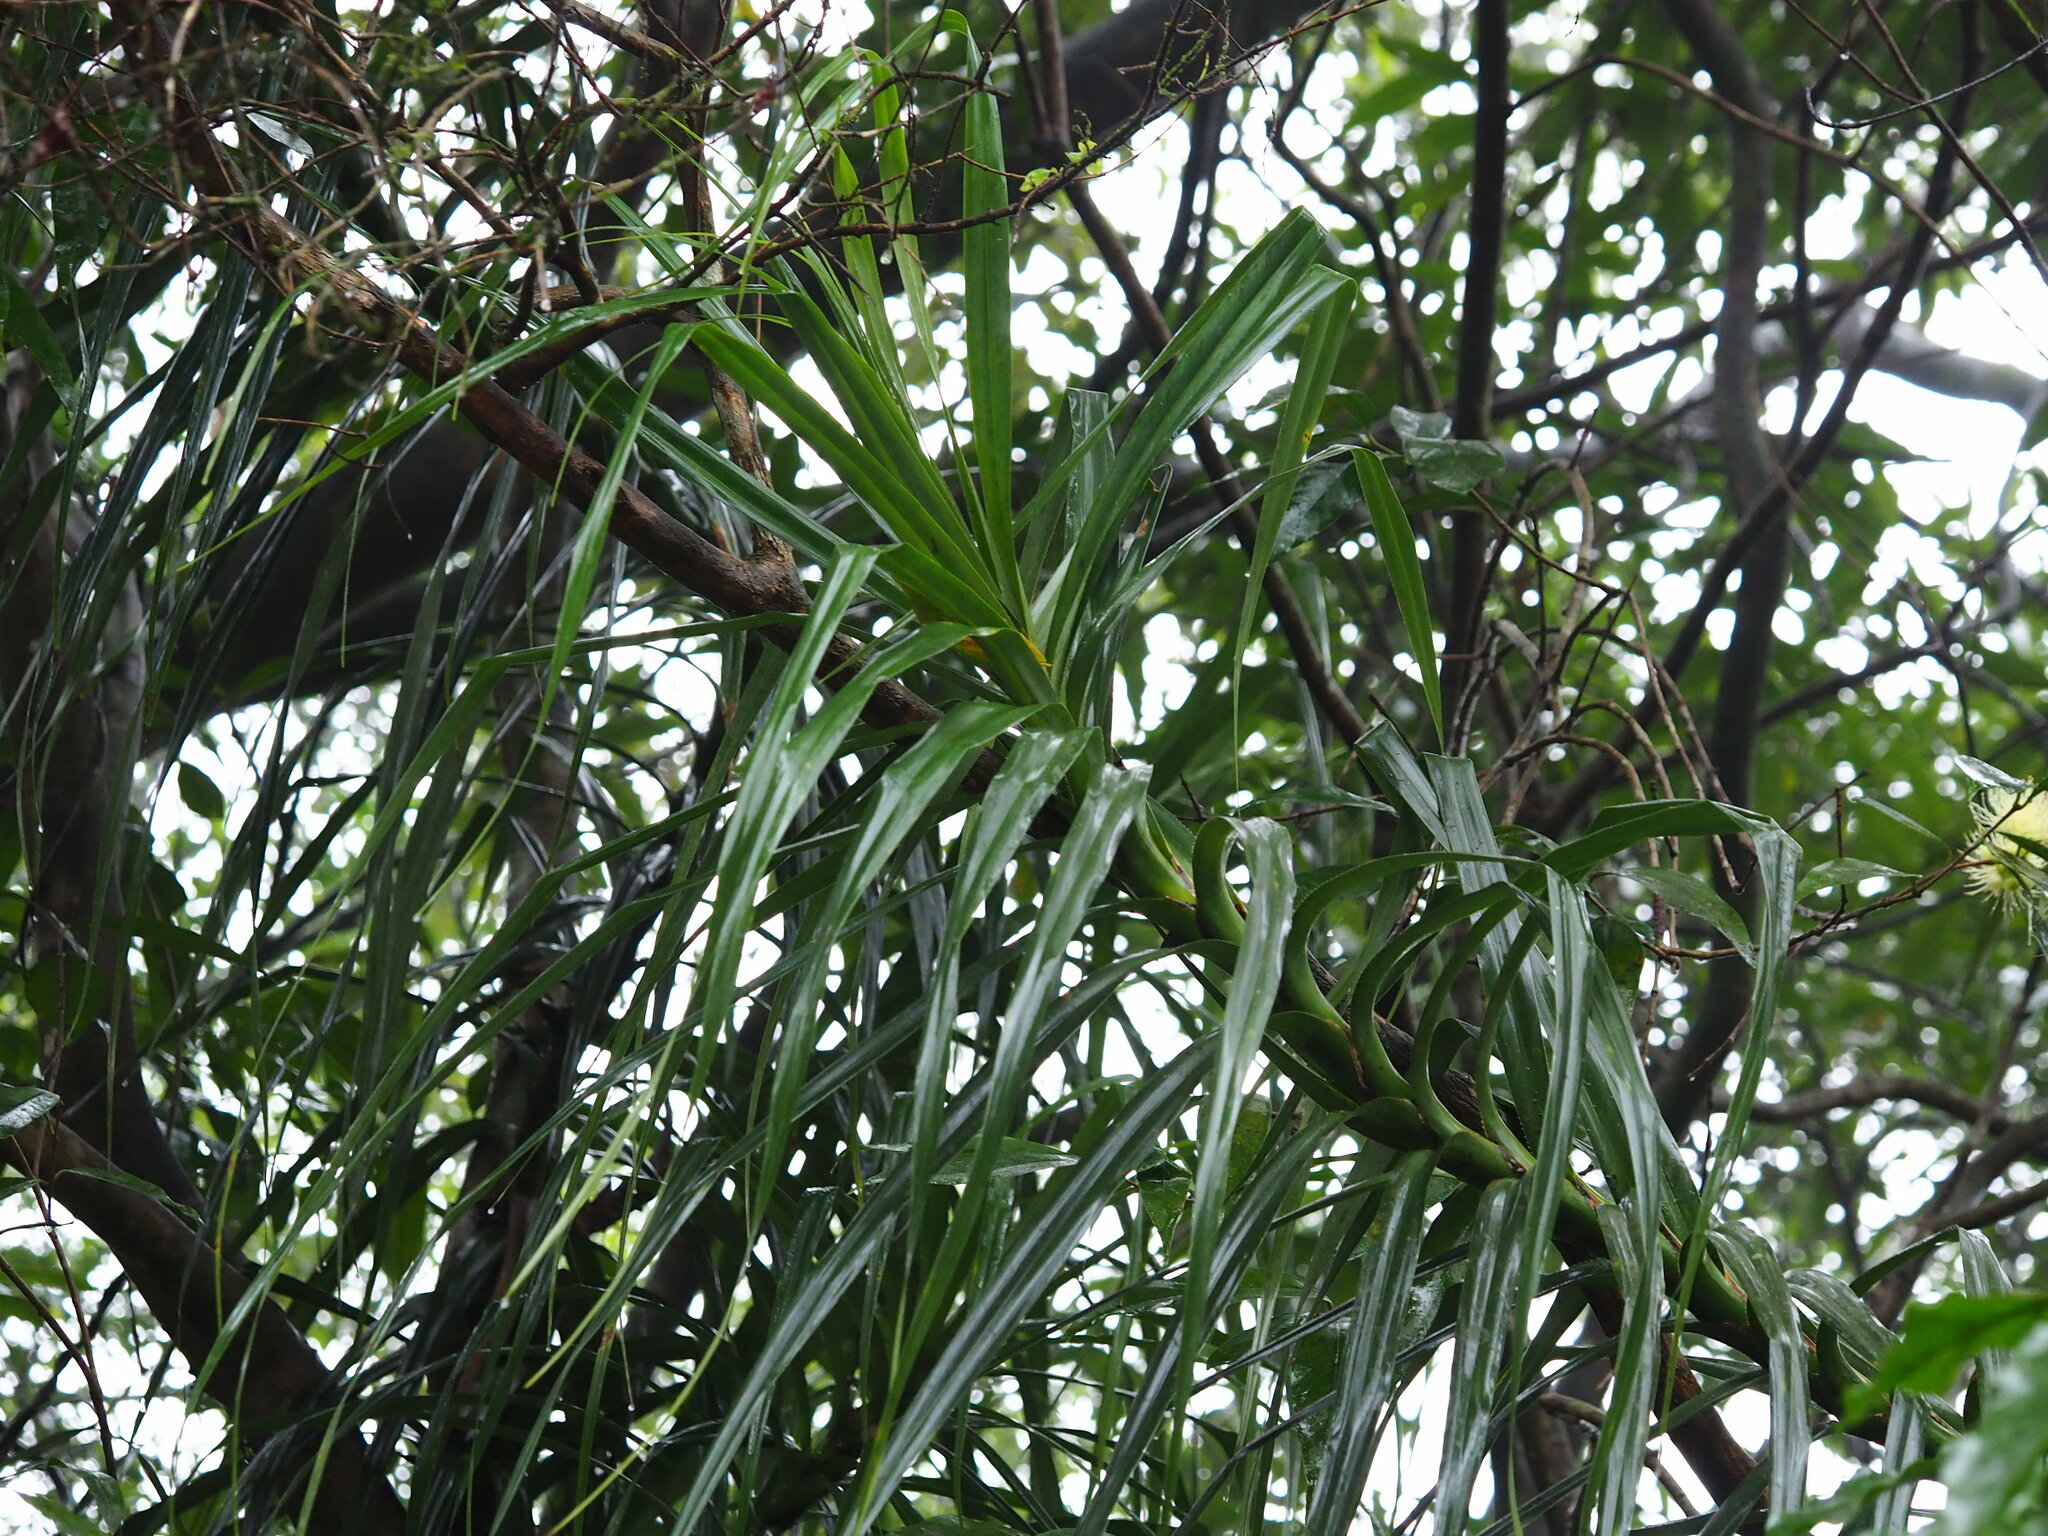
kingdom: Plantae
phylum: Tracheophyta
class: Liliopsida
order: Pandanales
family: Pandanaceae
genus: Freycinetia
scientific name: Freycinetia formosana
